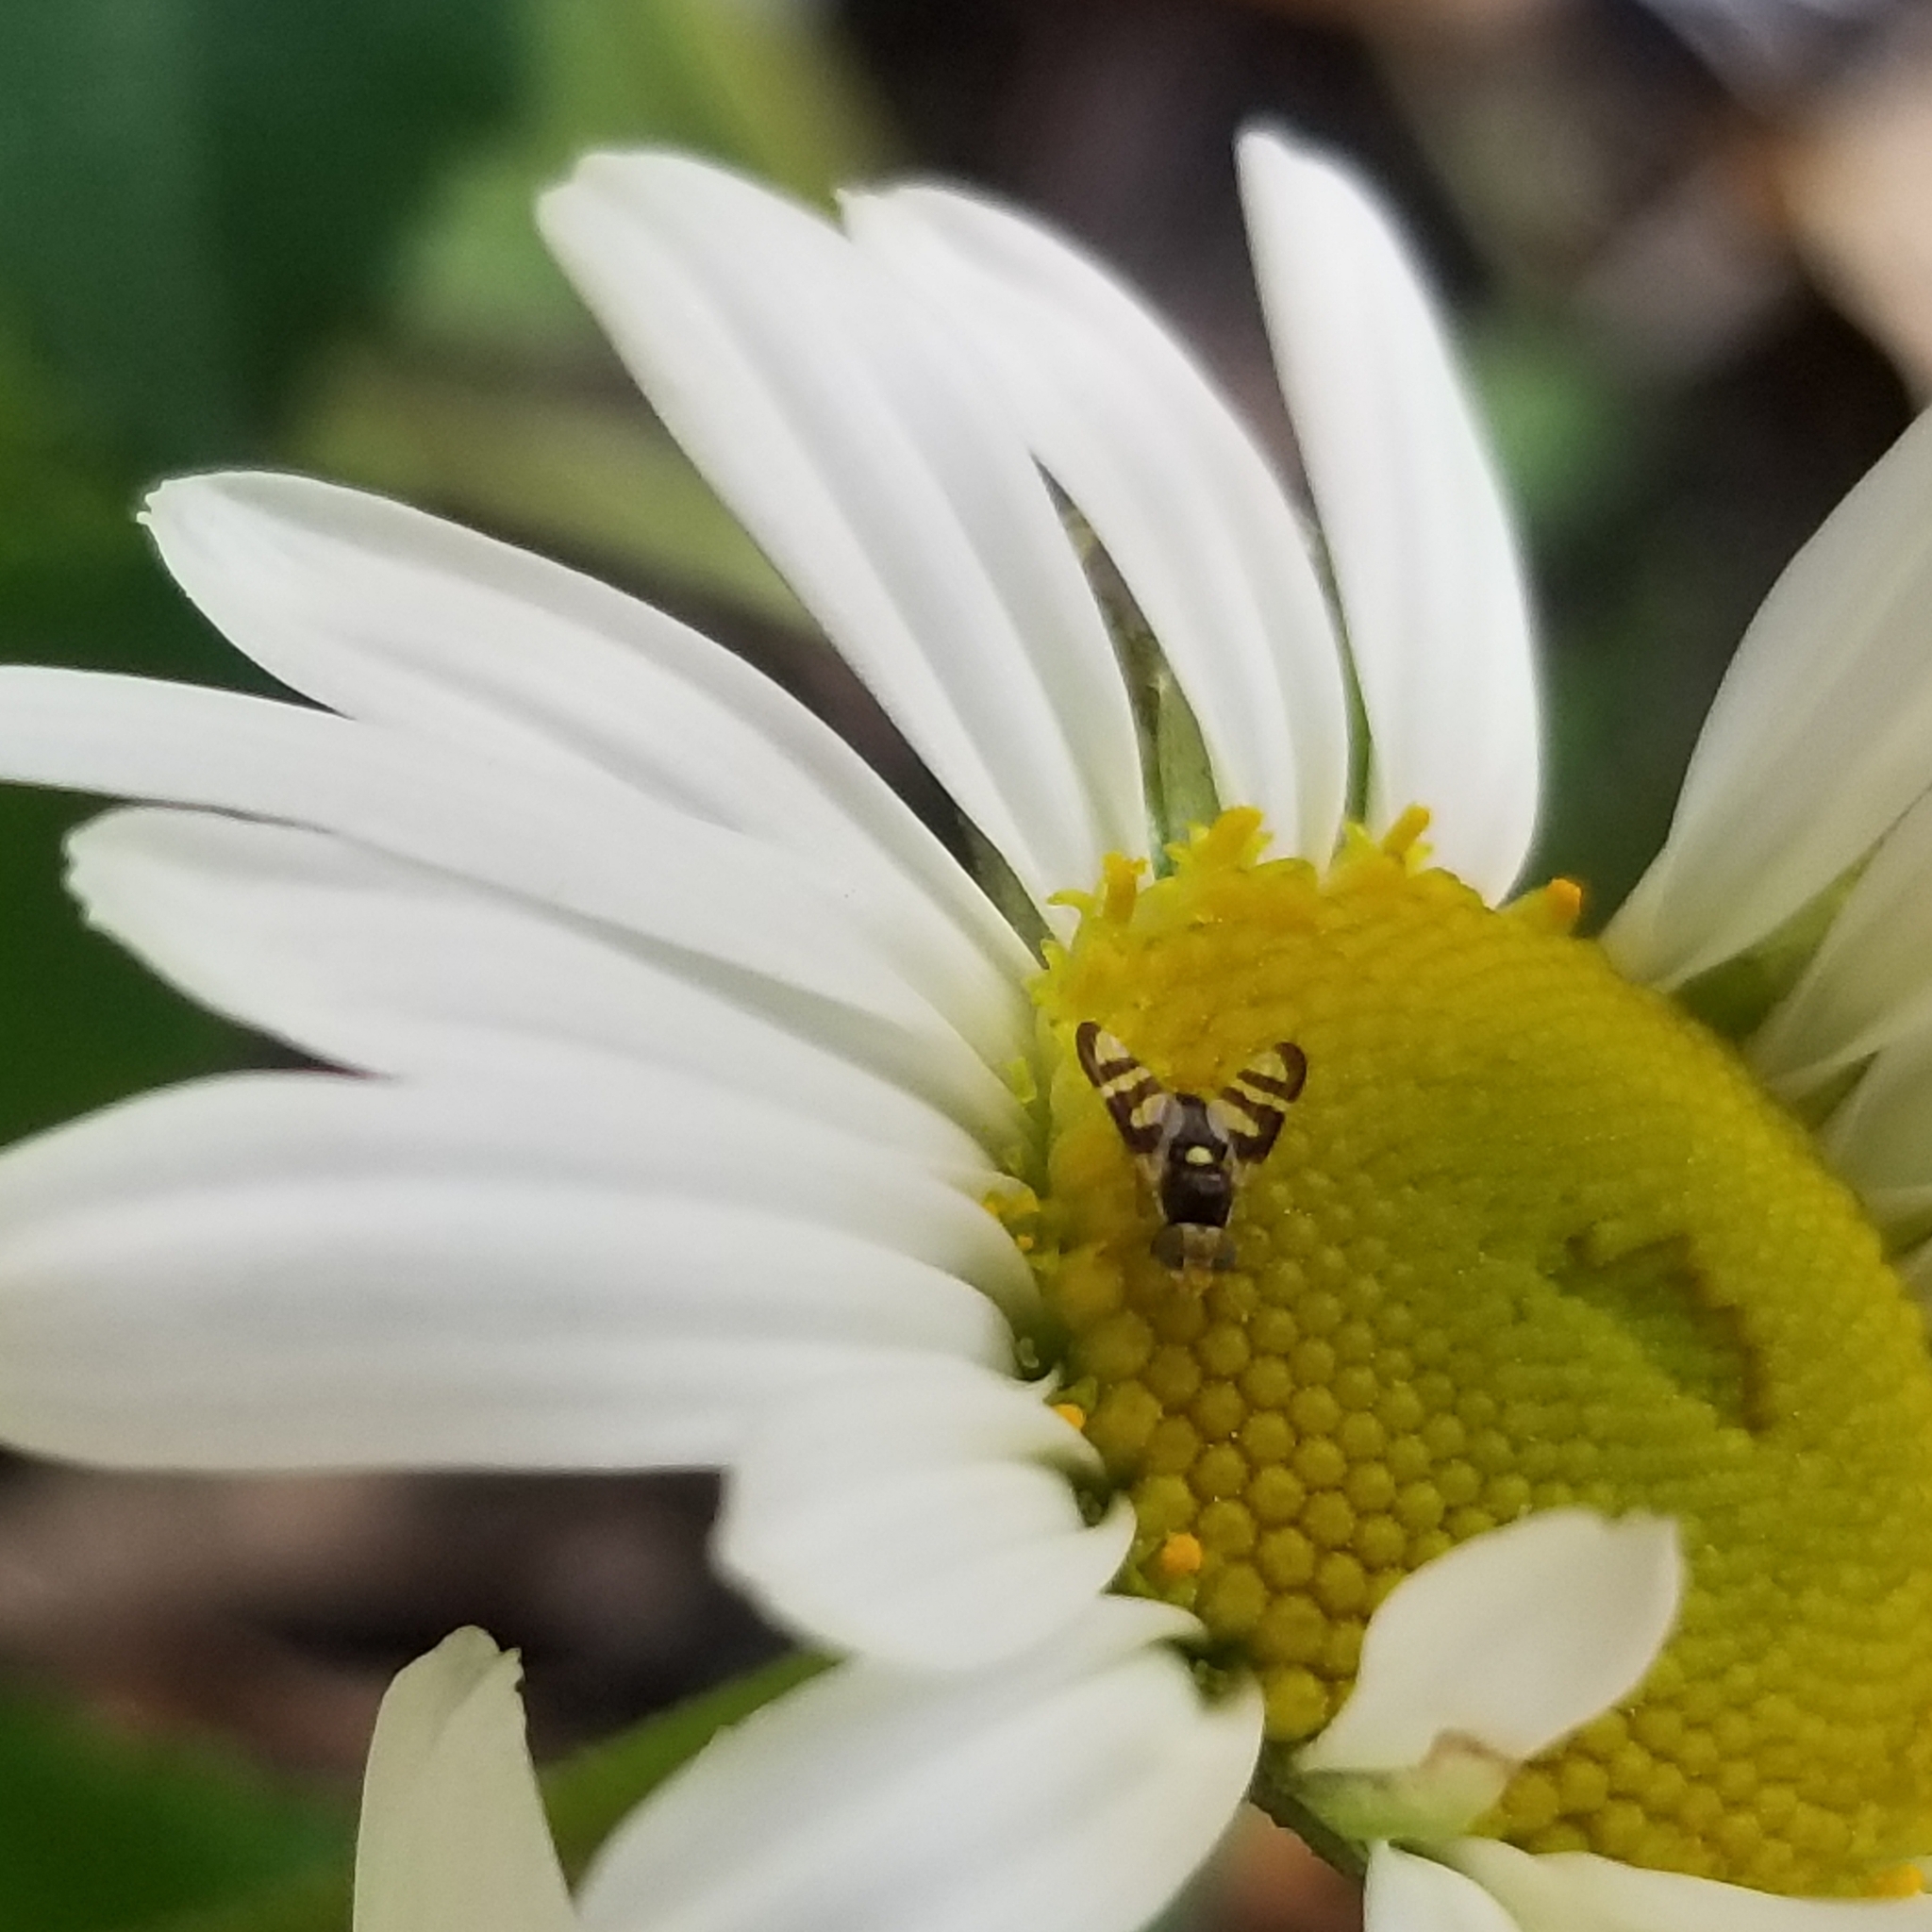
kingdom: Animalia
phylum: Arthropoda
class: Insecta
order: Diptera
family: Tephritidae
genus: Urophora
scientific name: Urophora quadrifasciata
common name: Knapweed seedhead fly
